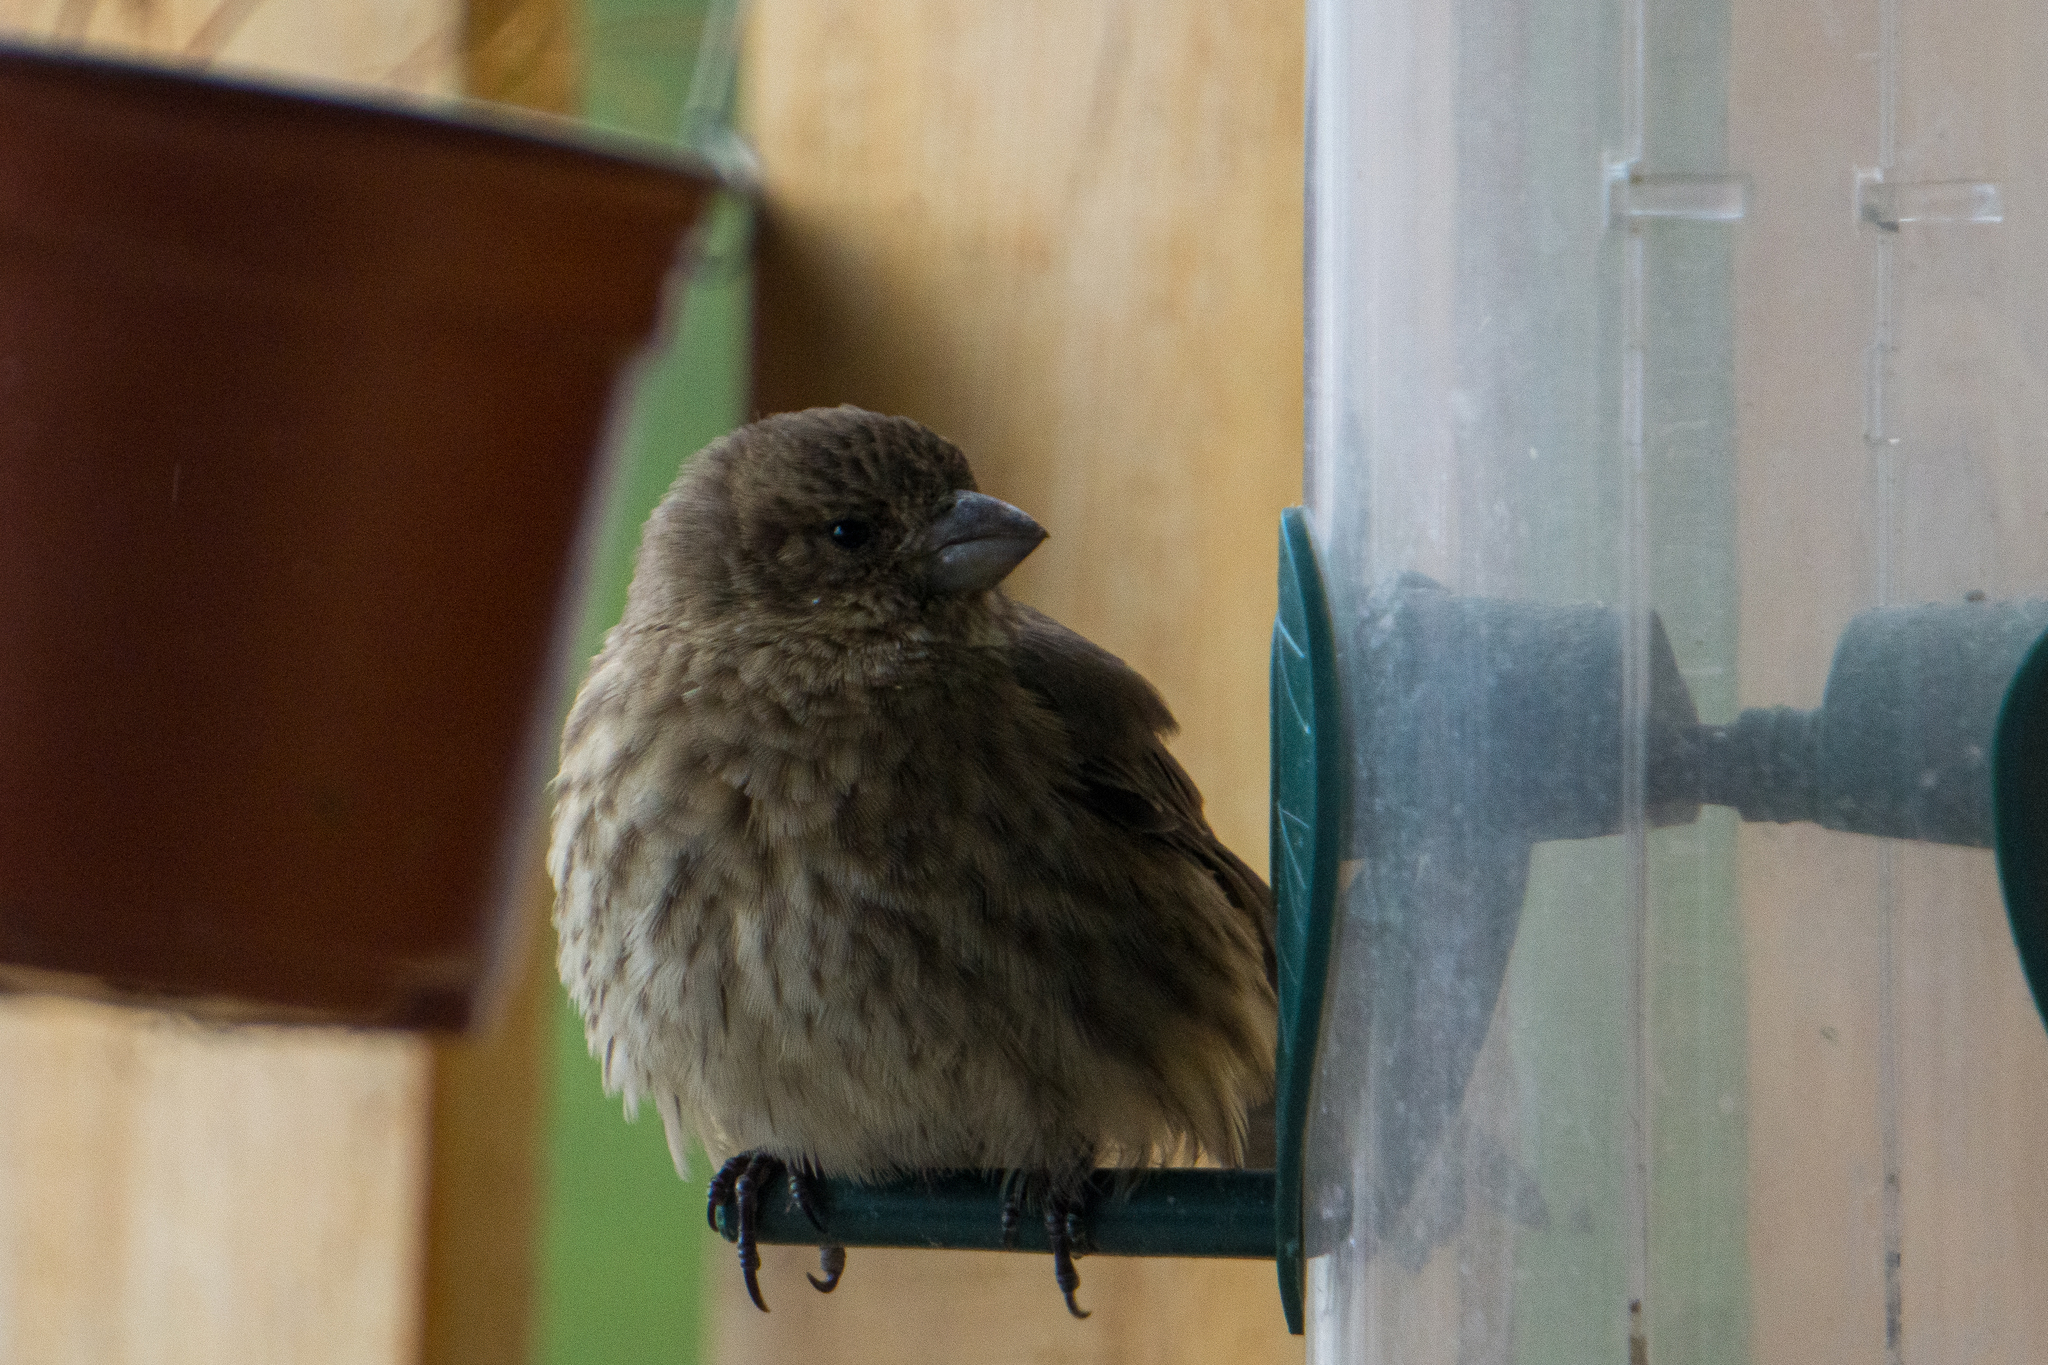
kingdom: Animalia
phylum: Chordata
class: Aves
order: Passeriformes
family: Fringillidae
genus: Haemorhous
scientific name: Haemorhous mexicanus
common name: House finch
